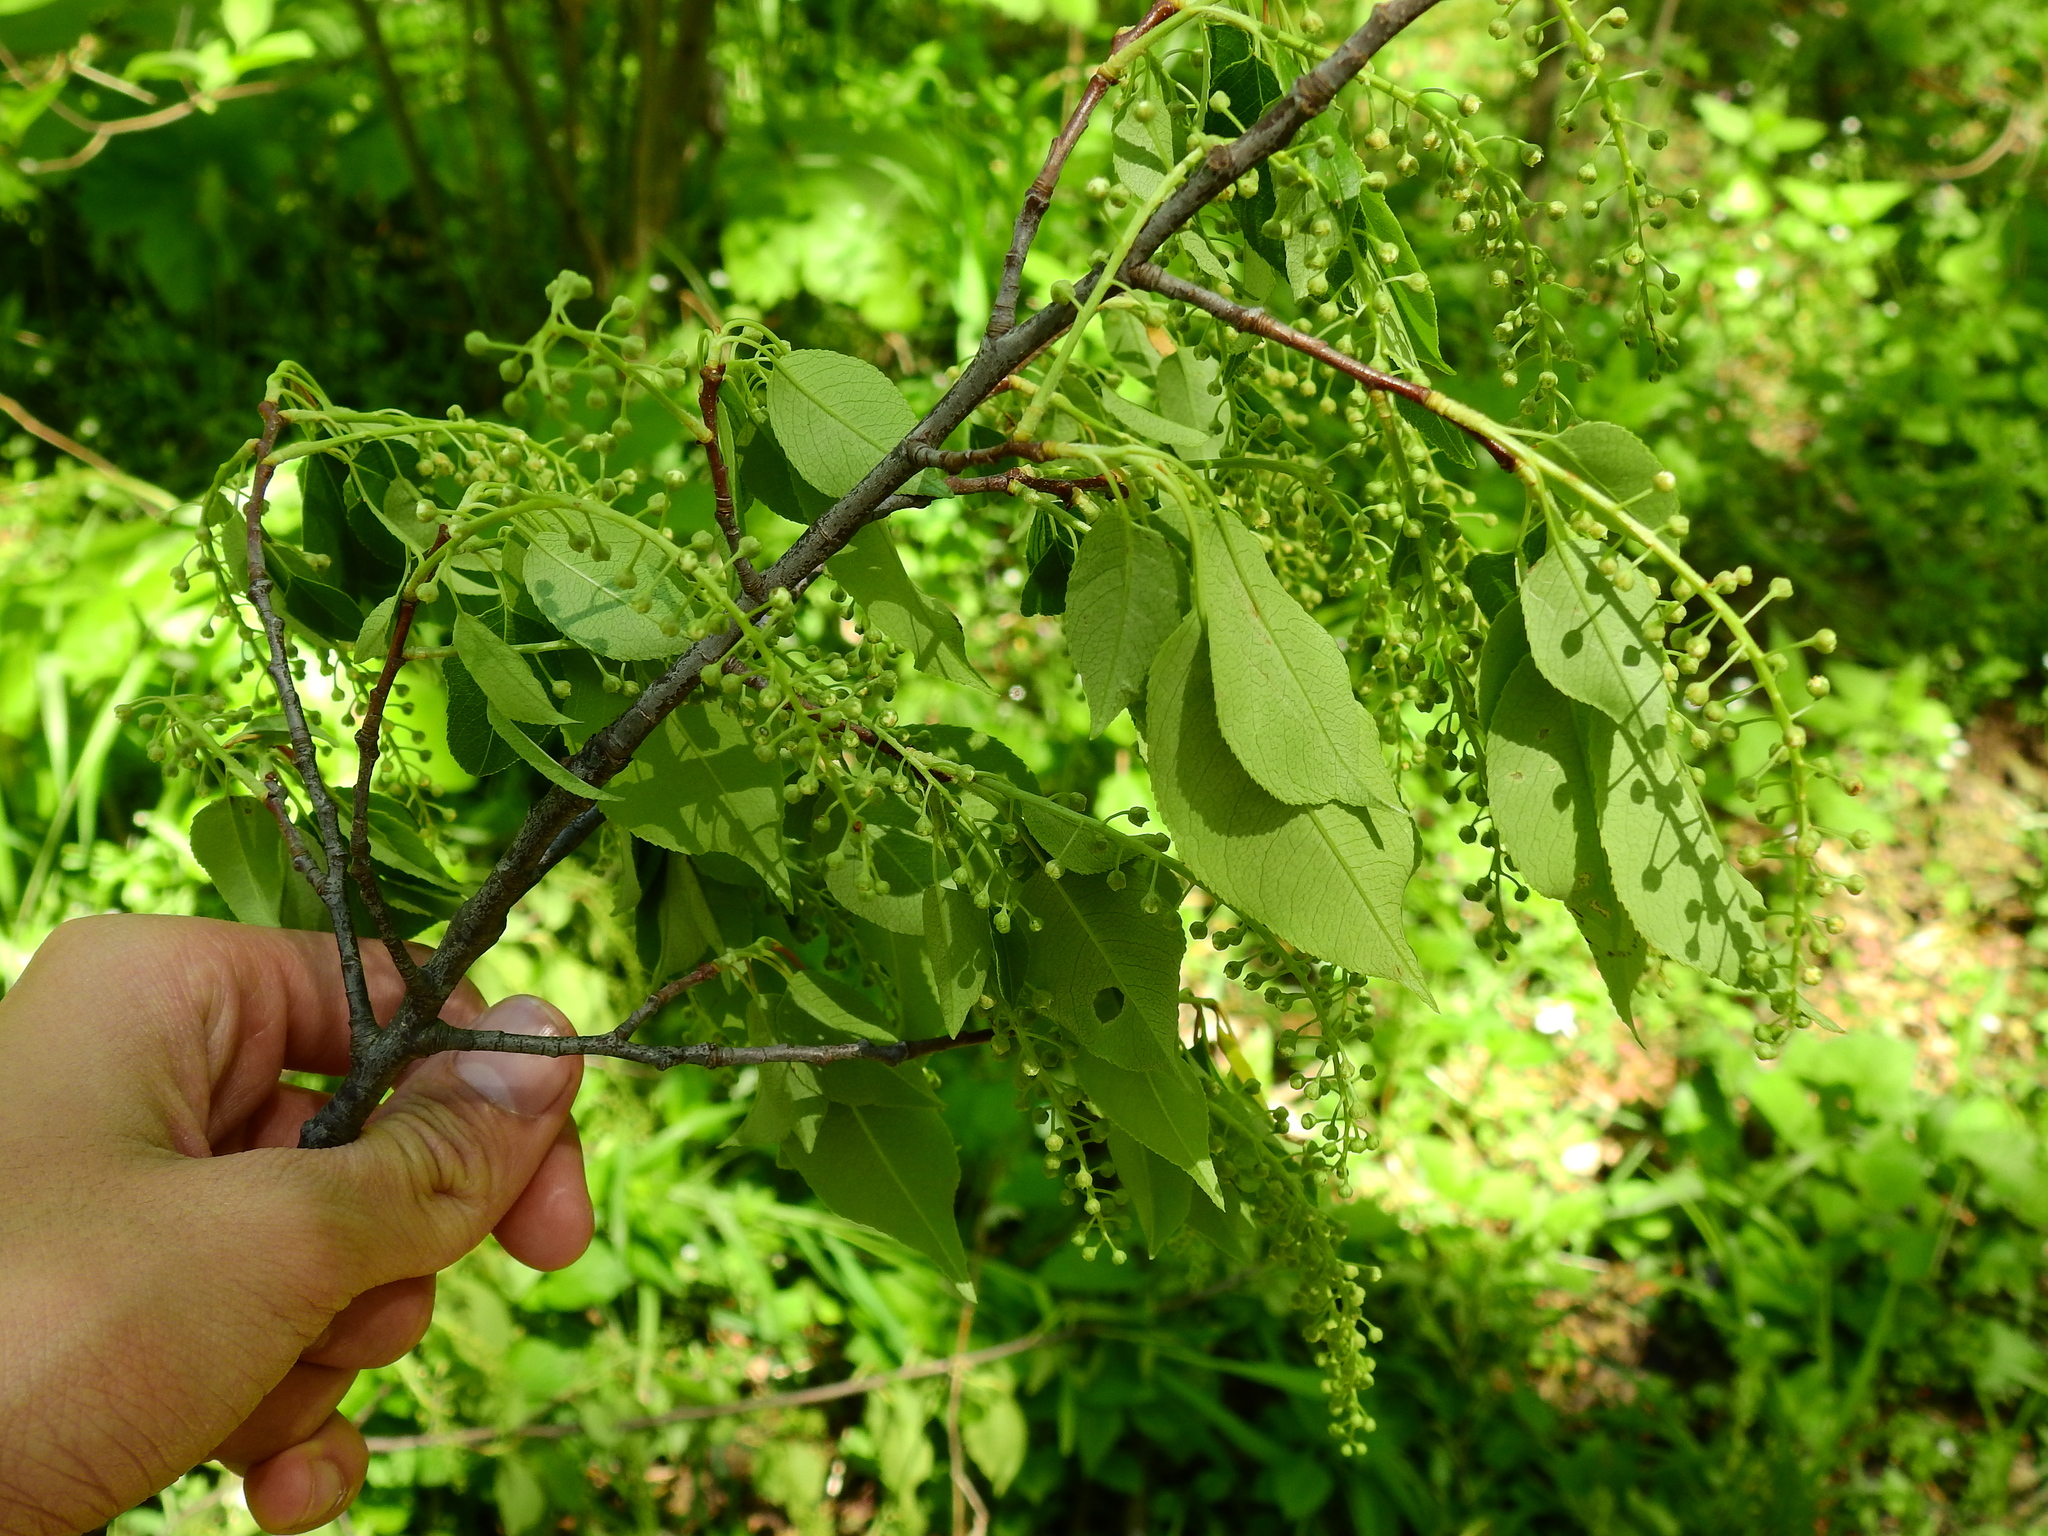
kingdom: Plantae
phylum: Tracheophyta
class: Magnoliopsida
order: Rosales
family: Rosaceae
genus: Prunus
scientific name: Prunus serotina
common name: Black cherry
